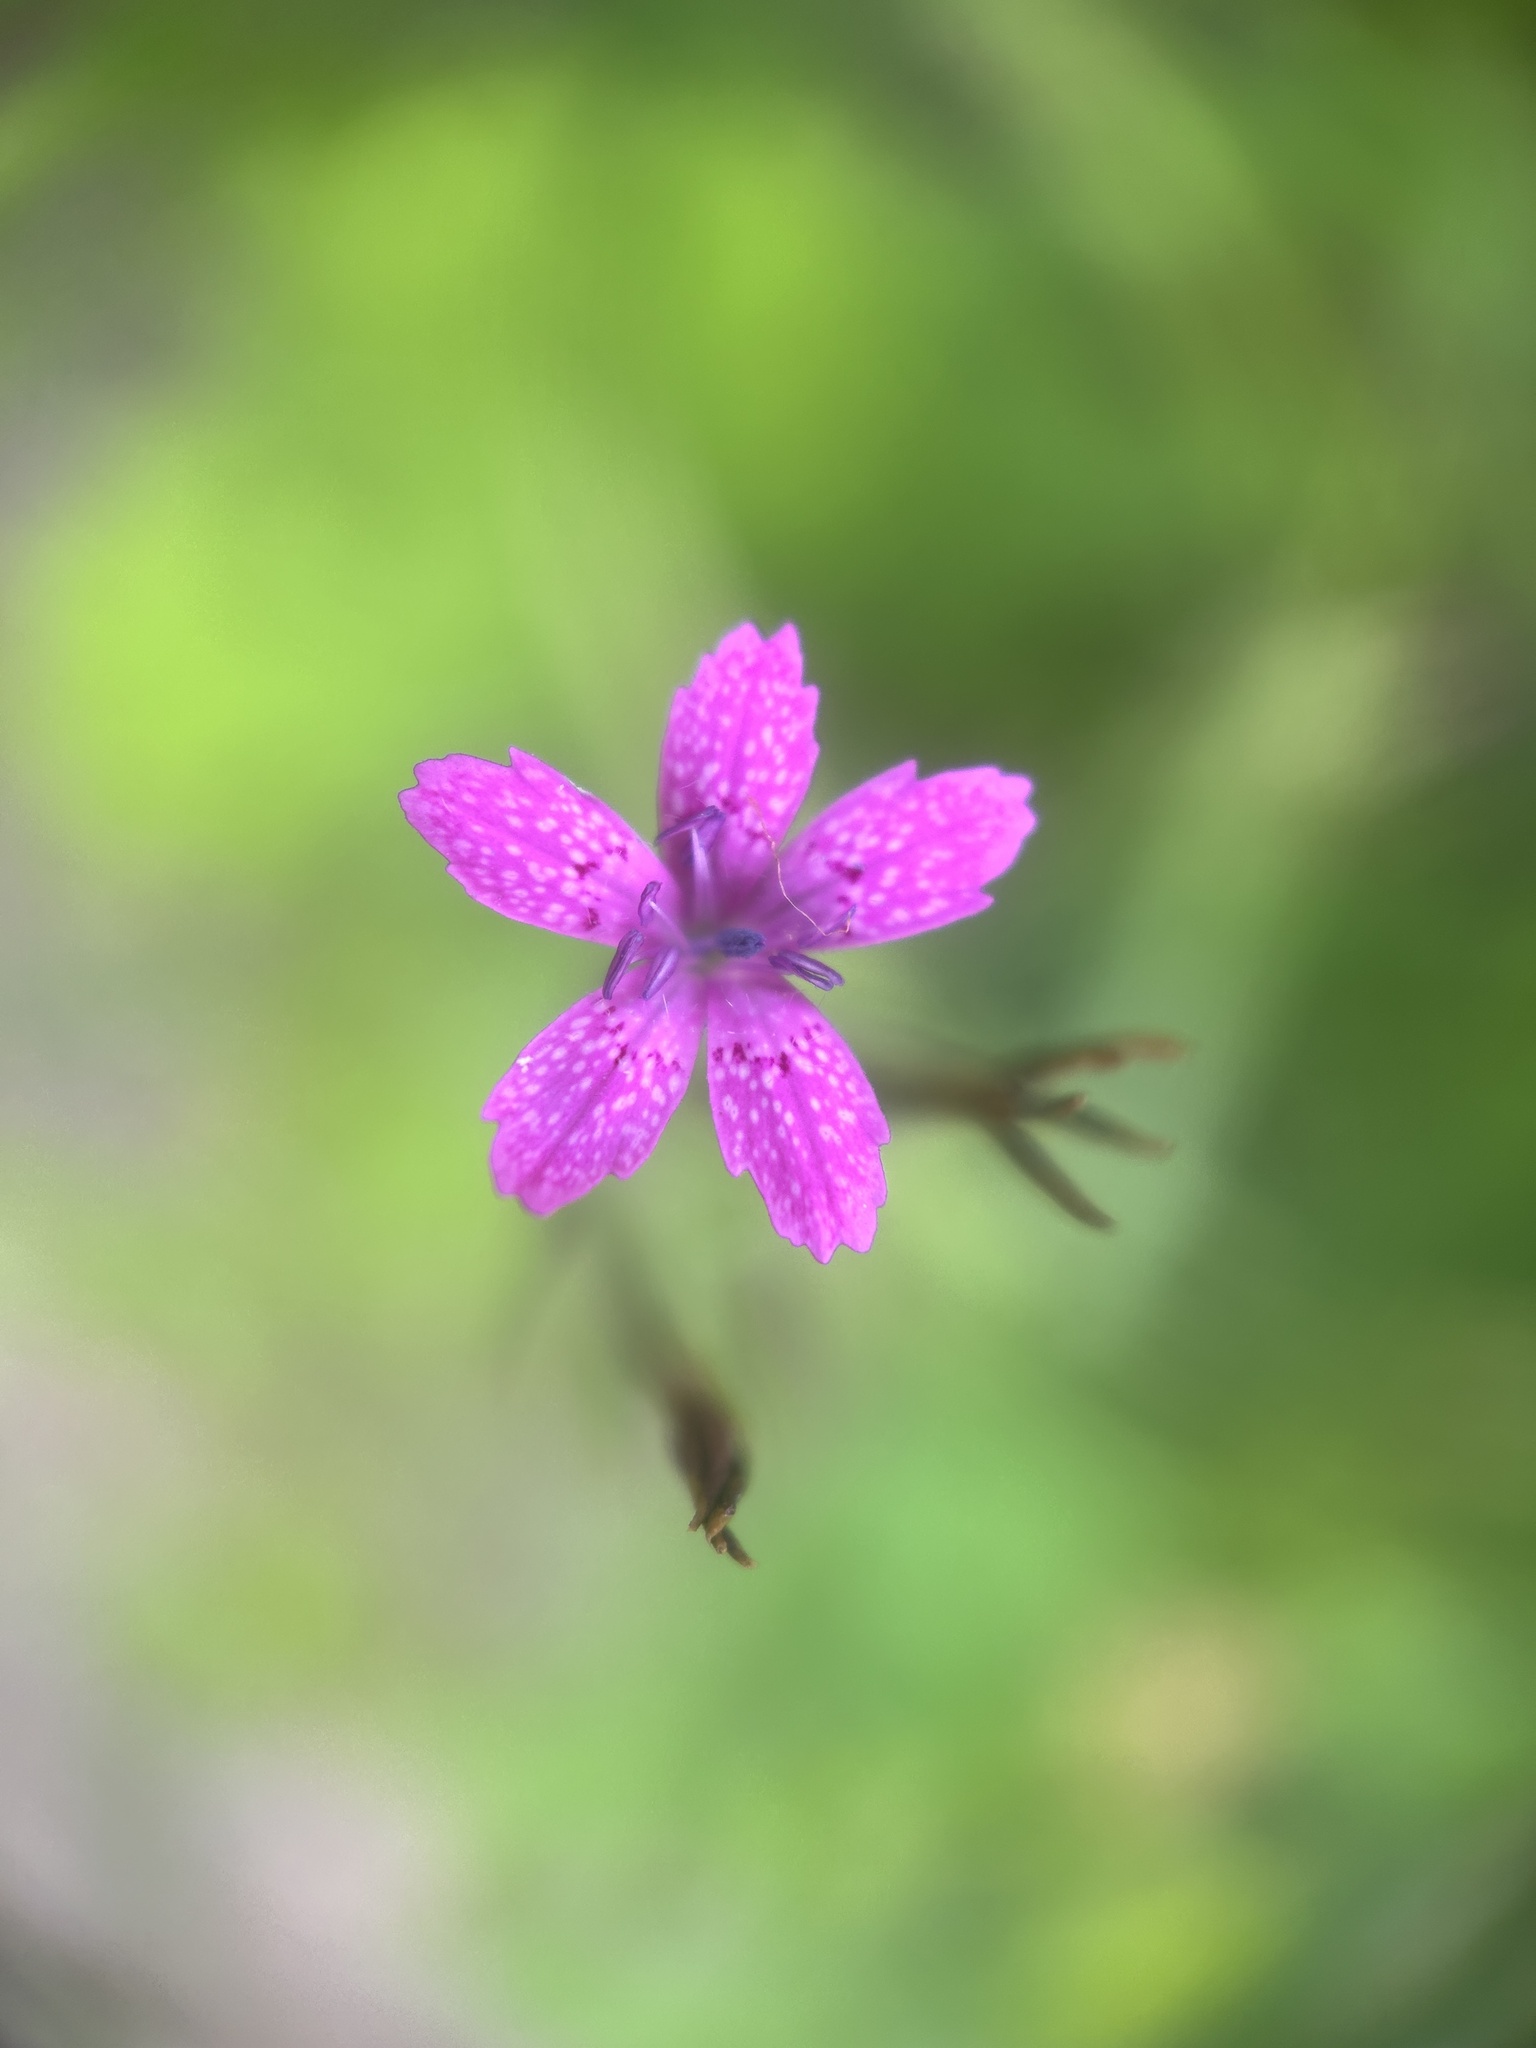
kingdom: Plantae
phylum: Tracheophyta
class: Magnoliopsida
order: Caryophyllales
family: Caryophyllaceae
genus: Dianthus
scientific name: Dianthus armeria
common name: Deptford pink
